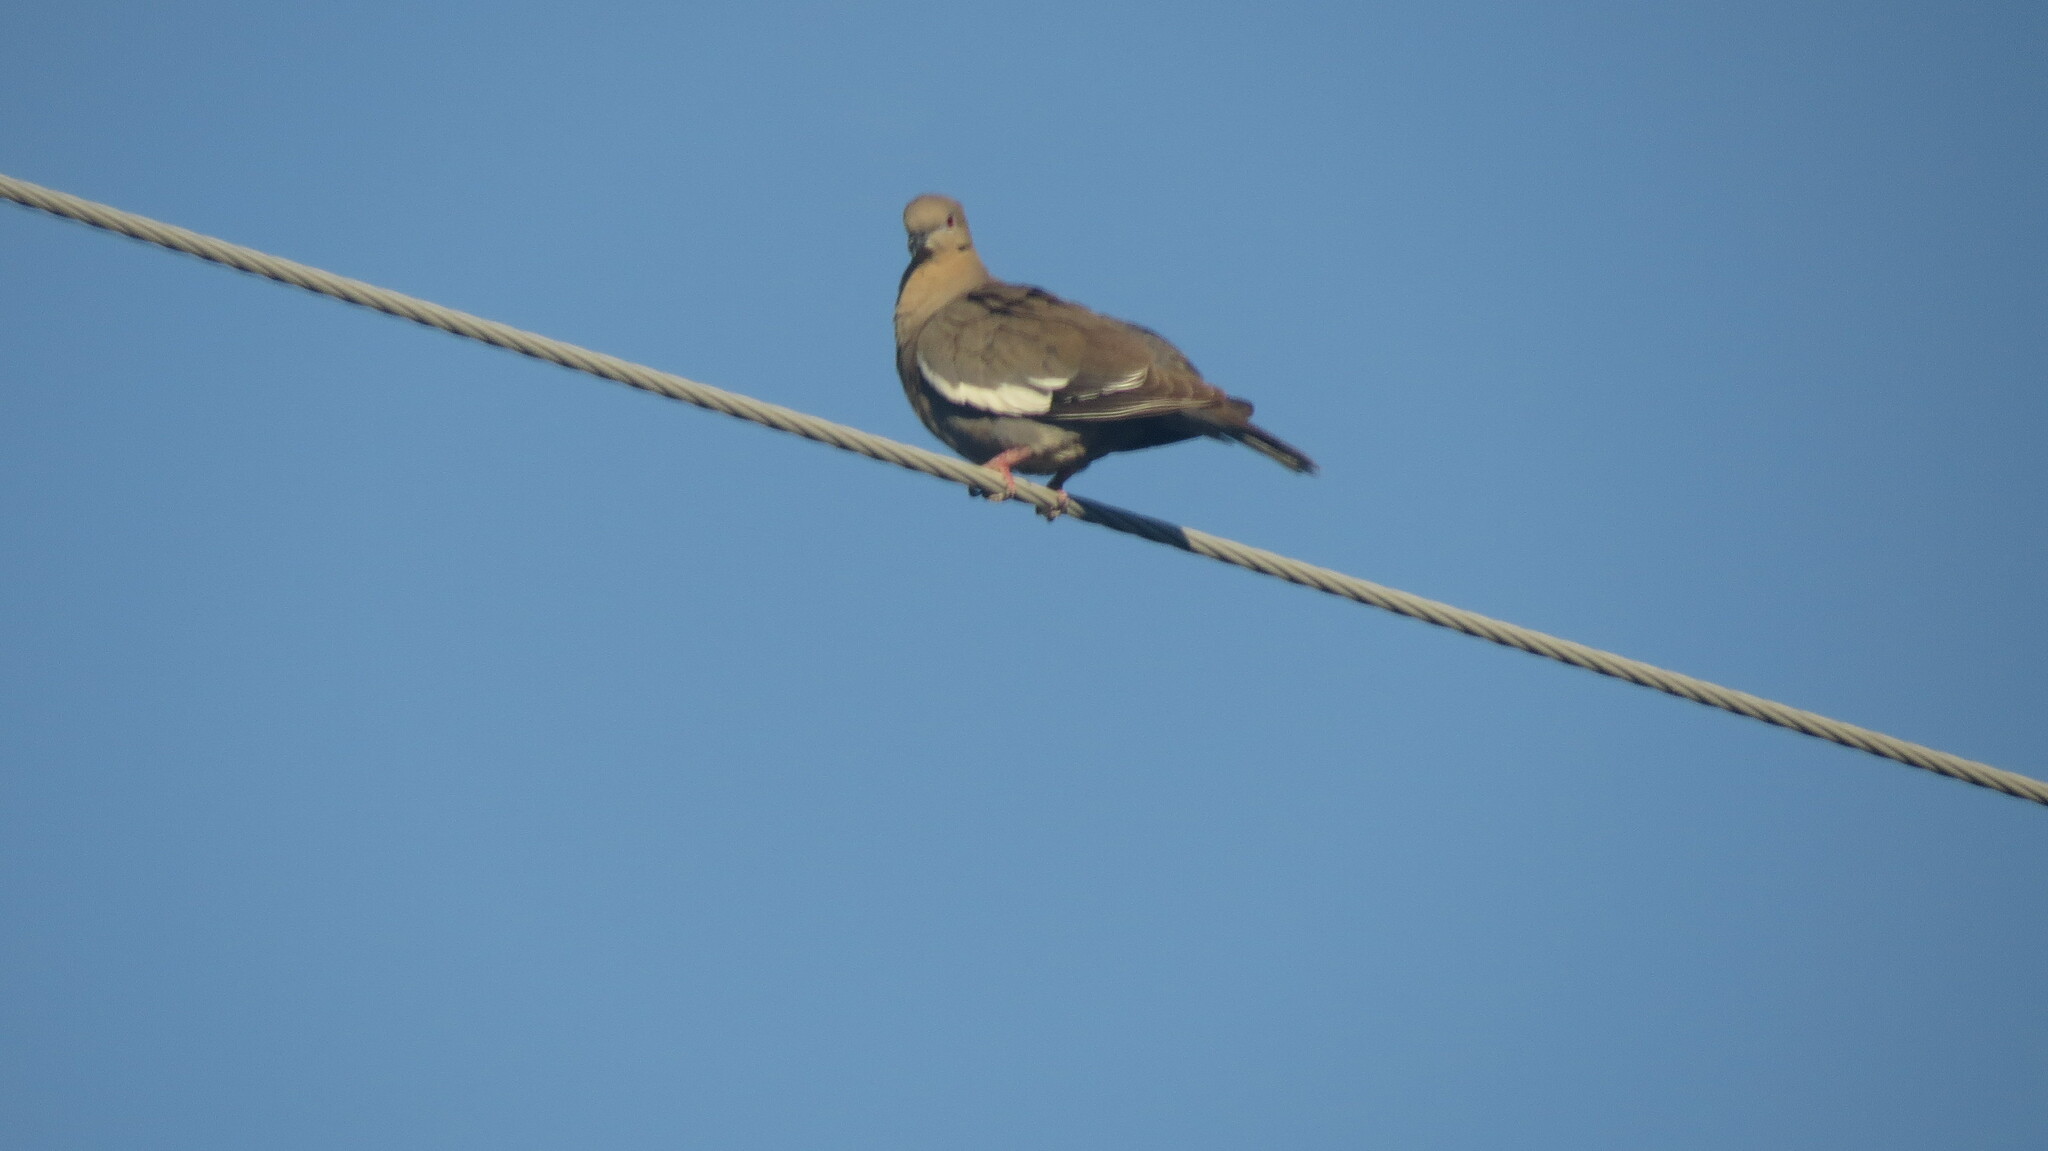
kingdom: Animalia
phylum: Chordata
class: Aves
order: Columbiformes
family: Columbidae
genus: Zenaida
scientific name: Zenaida asiatica
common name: White-winged dove
